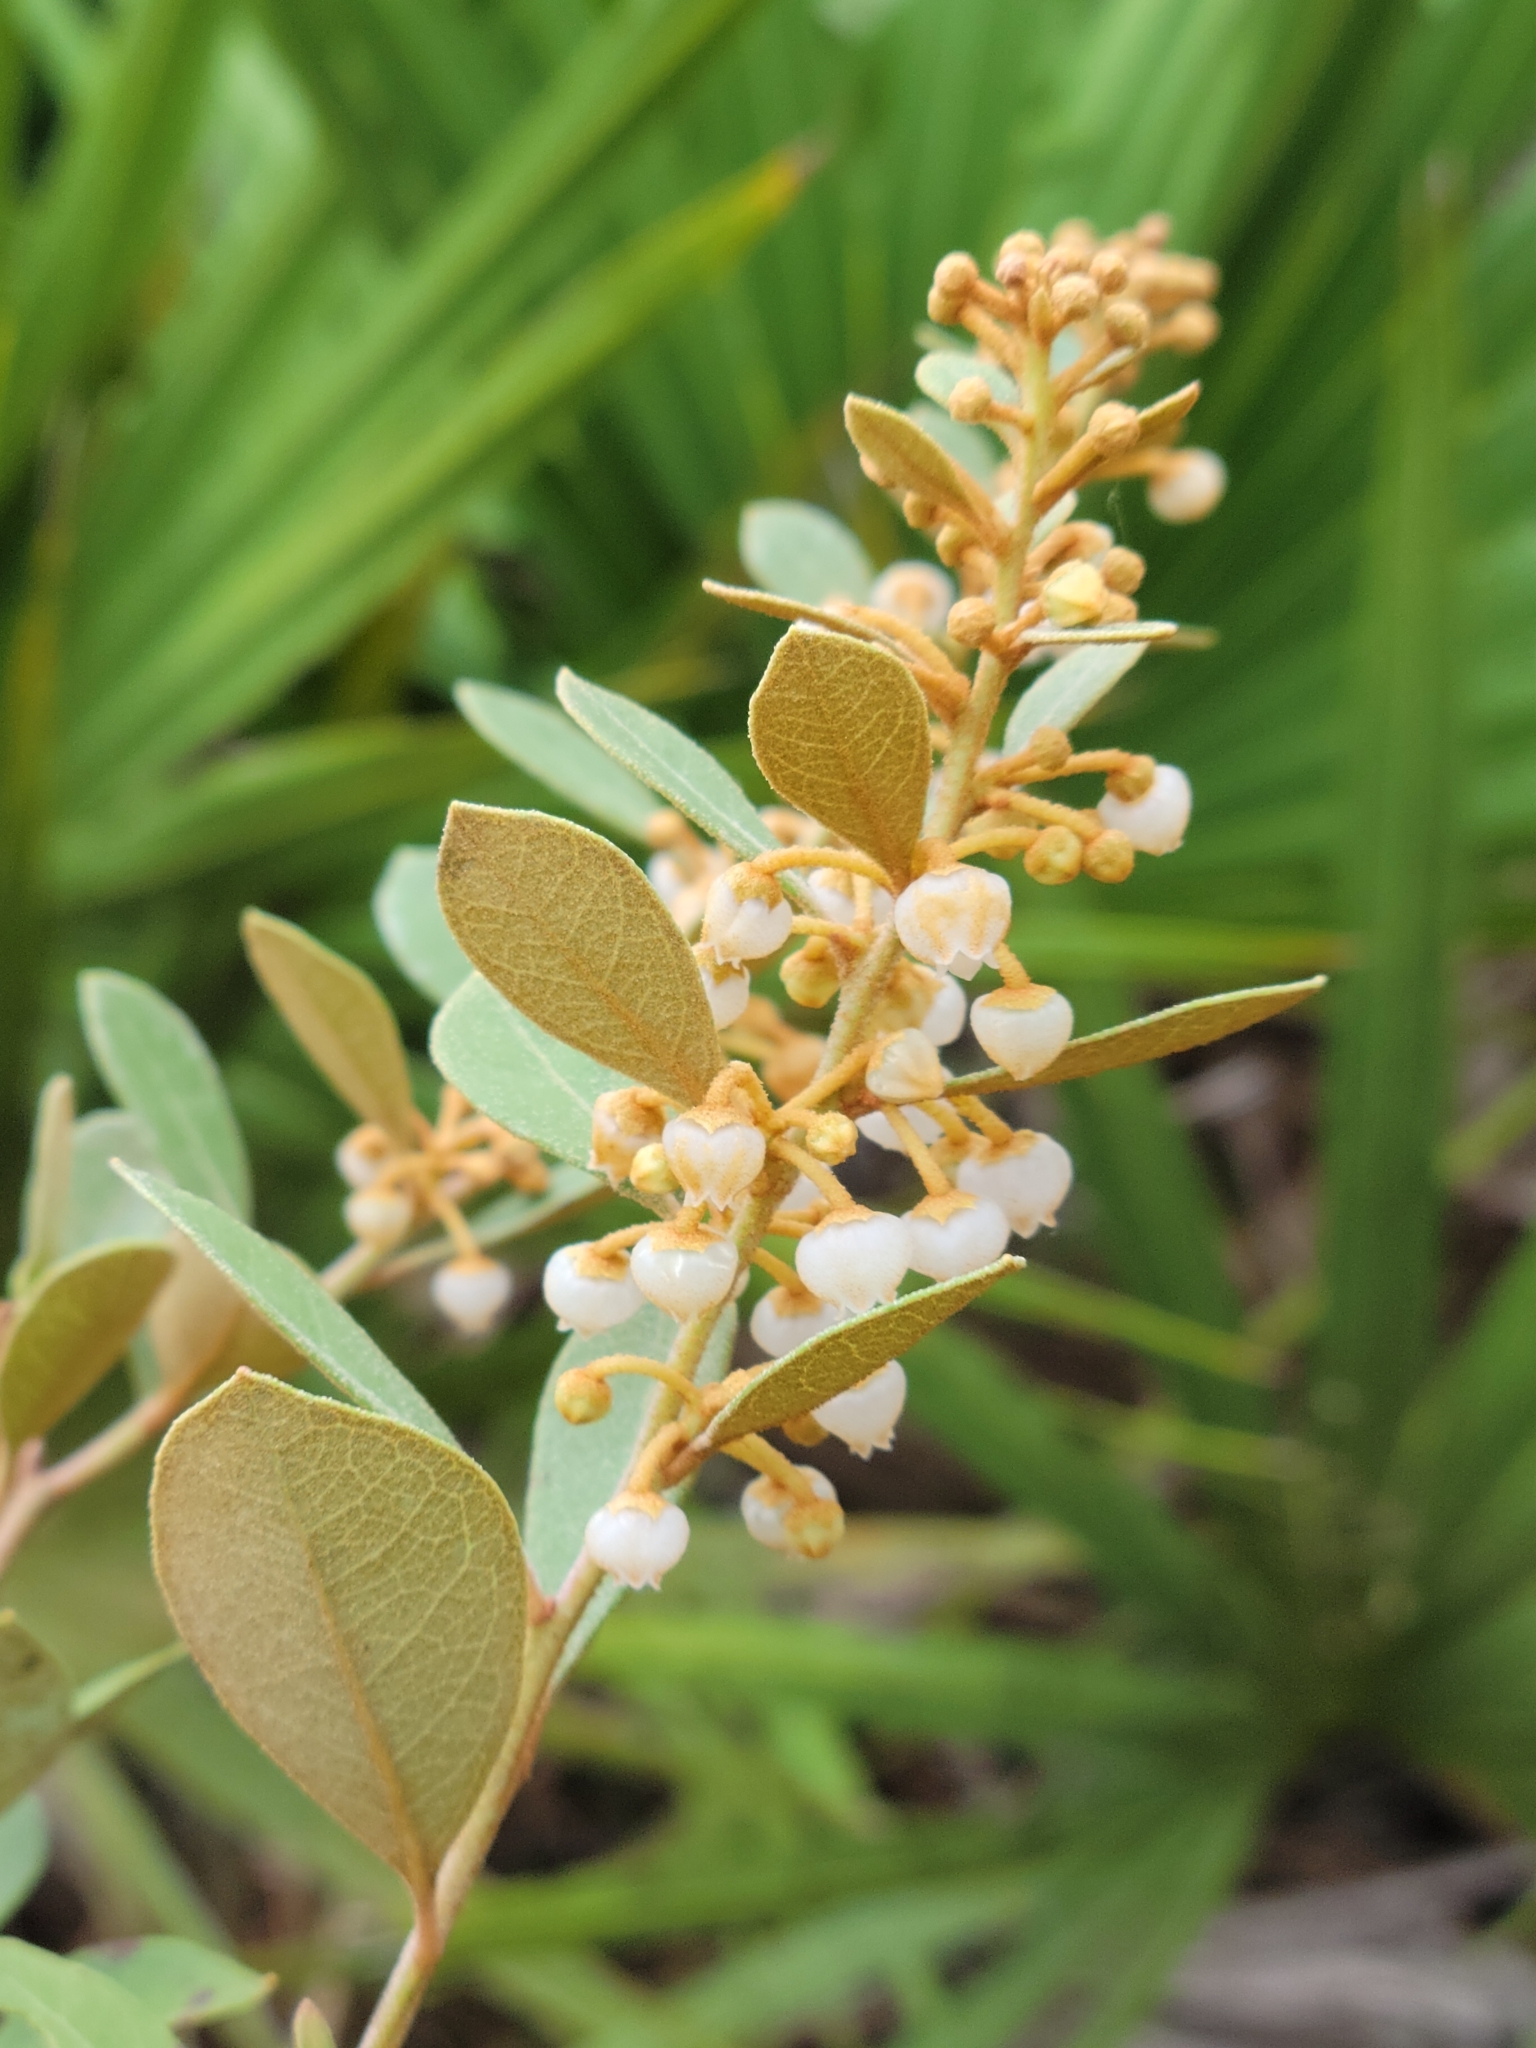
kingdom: Plantae
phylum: Tracheophyta
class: Magnoliopsida
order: Ericales
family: Ericaceae
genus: Lyonia
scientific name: Lyonia fruticosa
